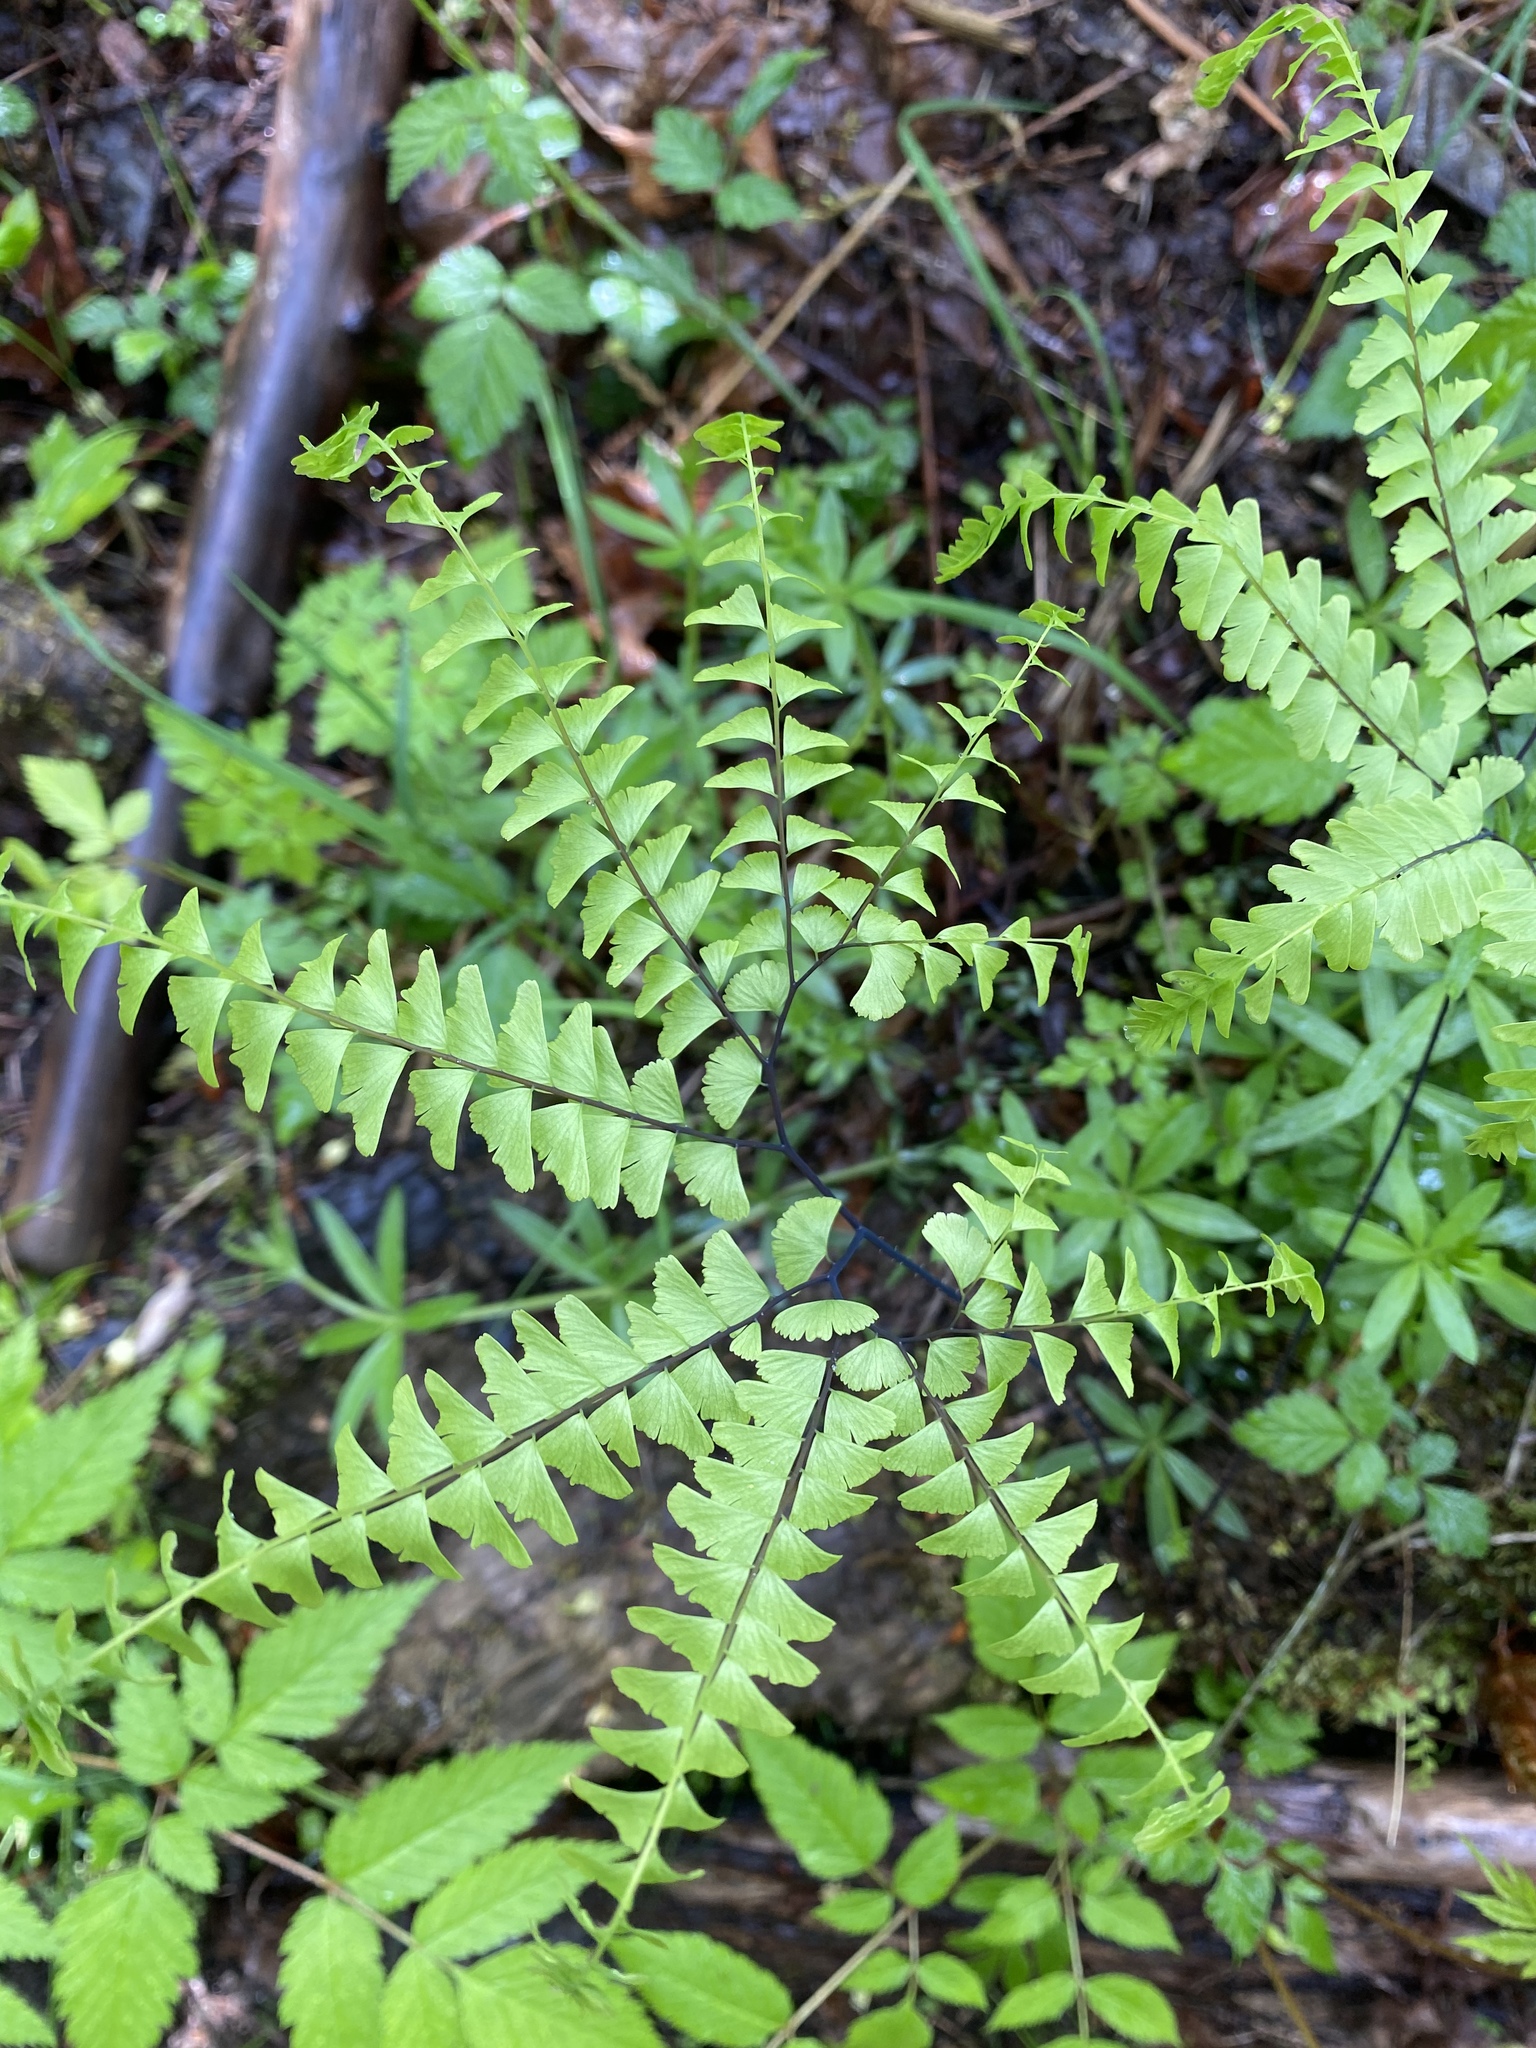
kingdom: Plantae
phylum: Tracheophyta
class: Polypodiopsida
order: Polypodiales
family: Pteridaceae
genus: Adiantum
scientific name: Adiantum aleuticum
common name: Aleutian maidenhair fern
